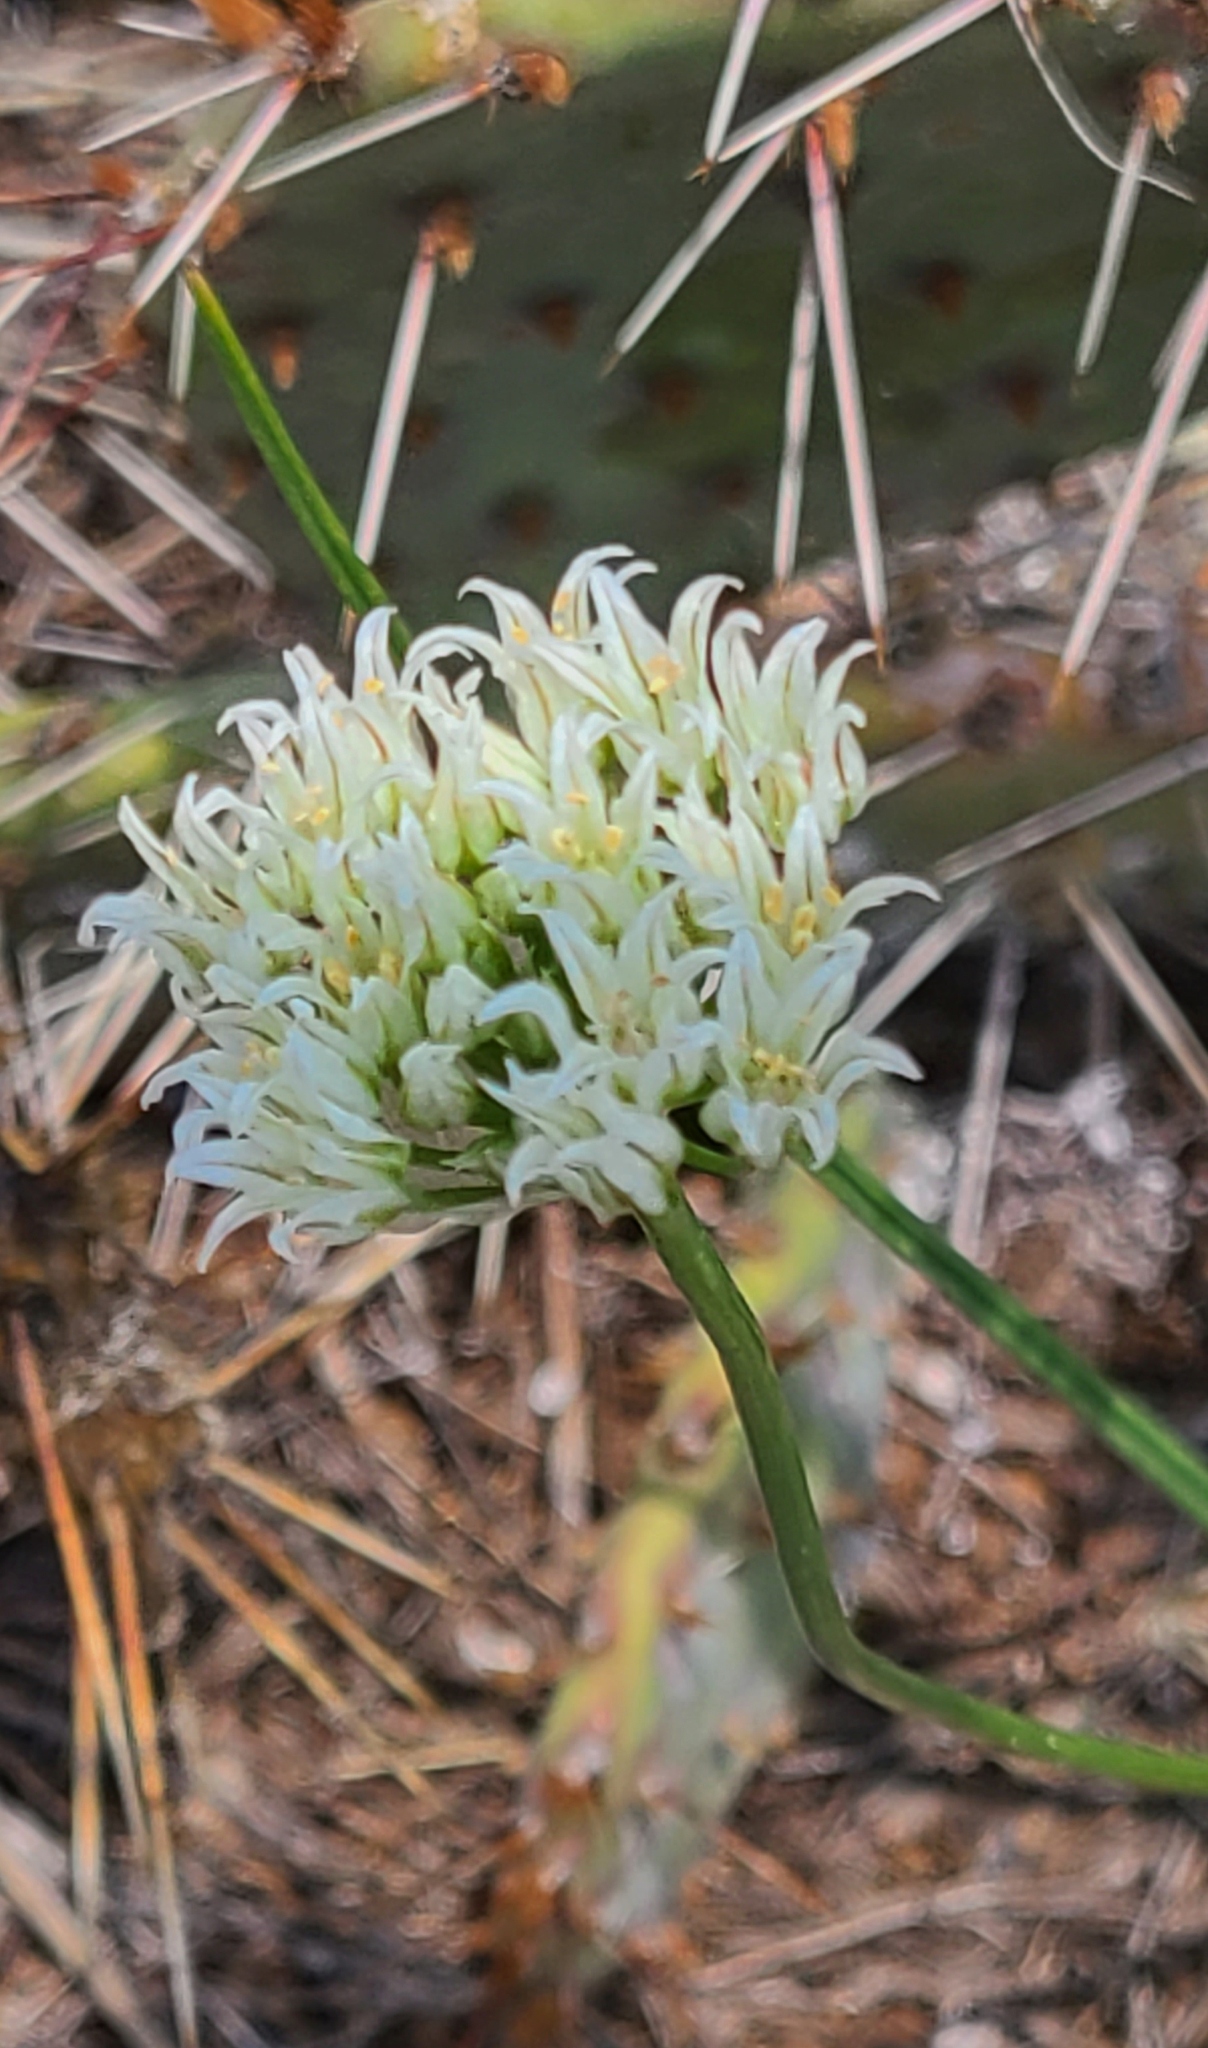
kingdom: Plantae
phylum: Tracheophyta
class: Liliopsida
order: Asparagales
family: Amaryllidaceae
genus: Allium
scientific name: Allium textile
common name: Prairie onion
